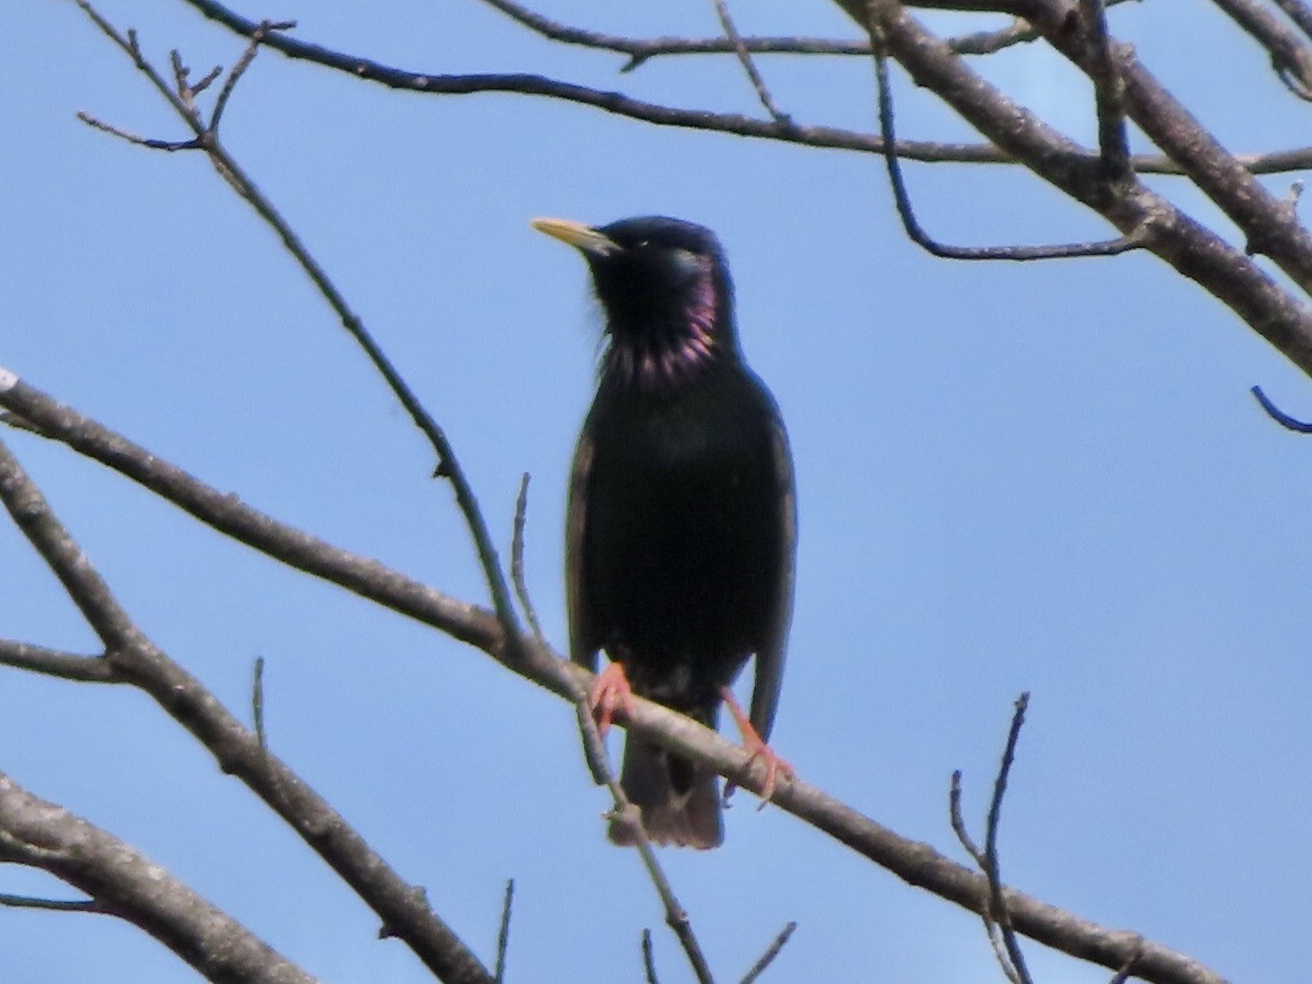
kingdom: Animalia
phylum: Chordata
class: Aves
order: Passeriformes
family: Sturnidae
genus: Sturnus
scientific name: Sturnus vulgaris
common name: Common starling
